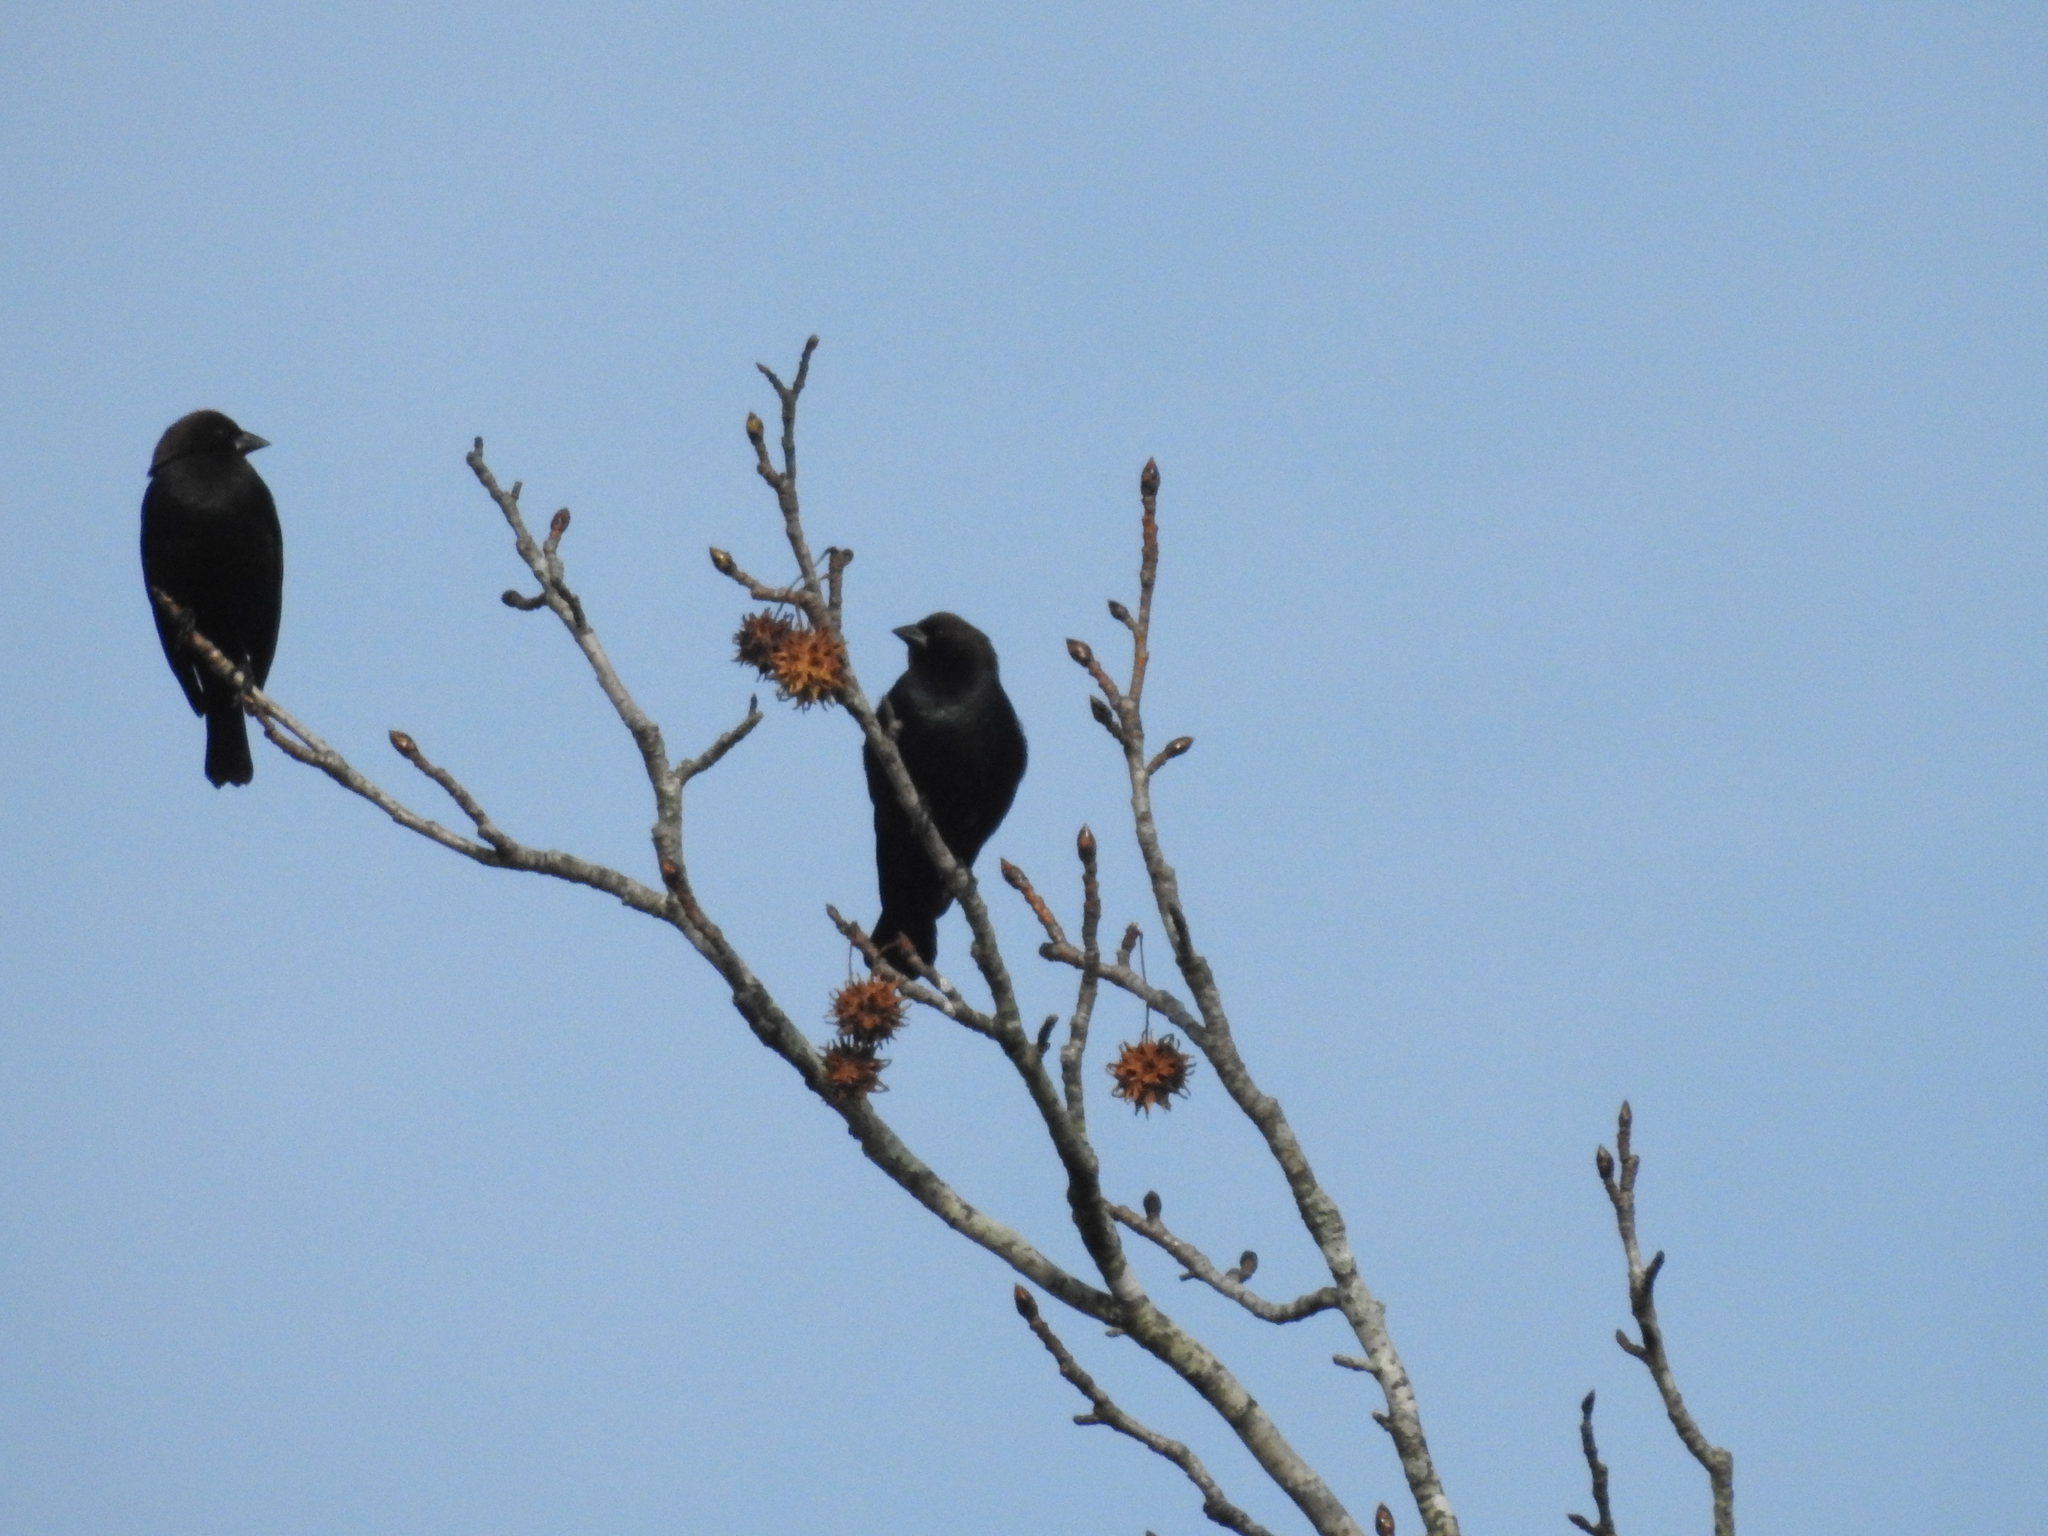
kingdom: Animalia
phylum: Chordata
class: Aves
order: Passeriformes
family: Icteridae
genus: Molothrus
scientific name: Molothrus ater
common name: Brown-headed cowbird
